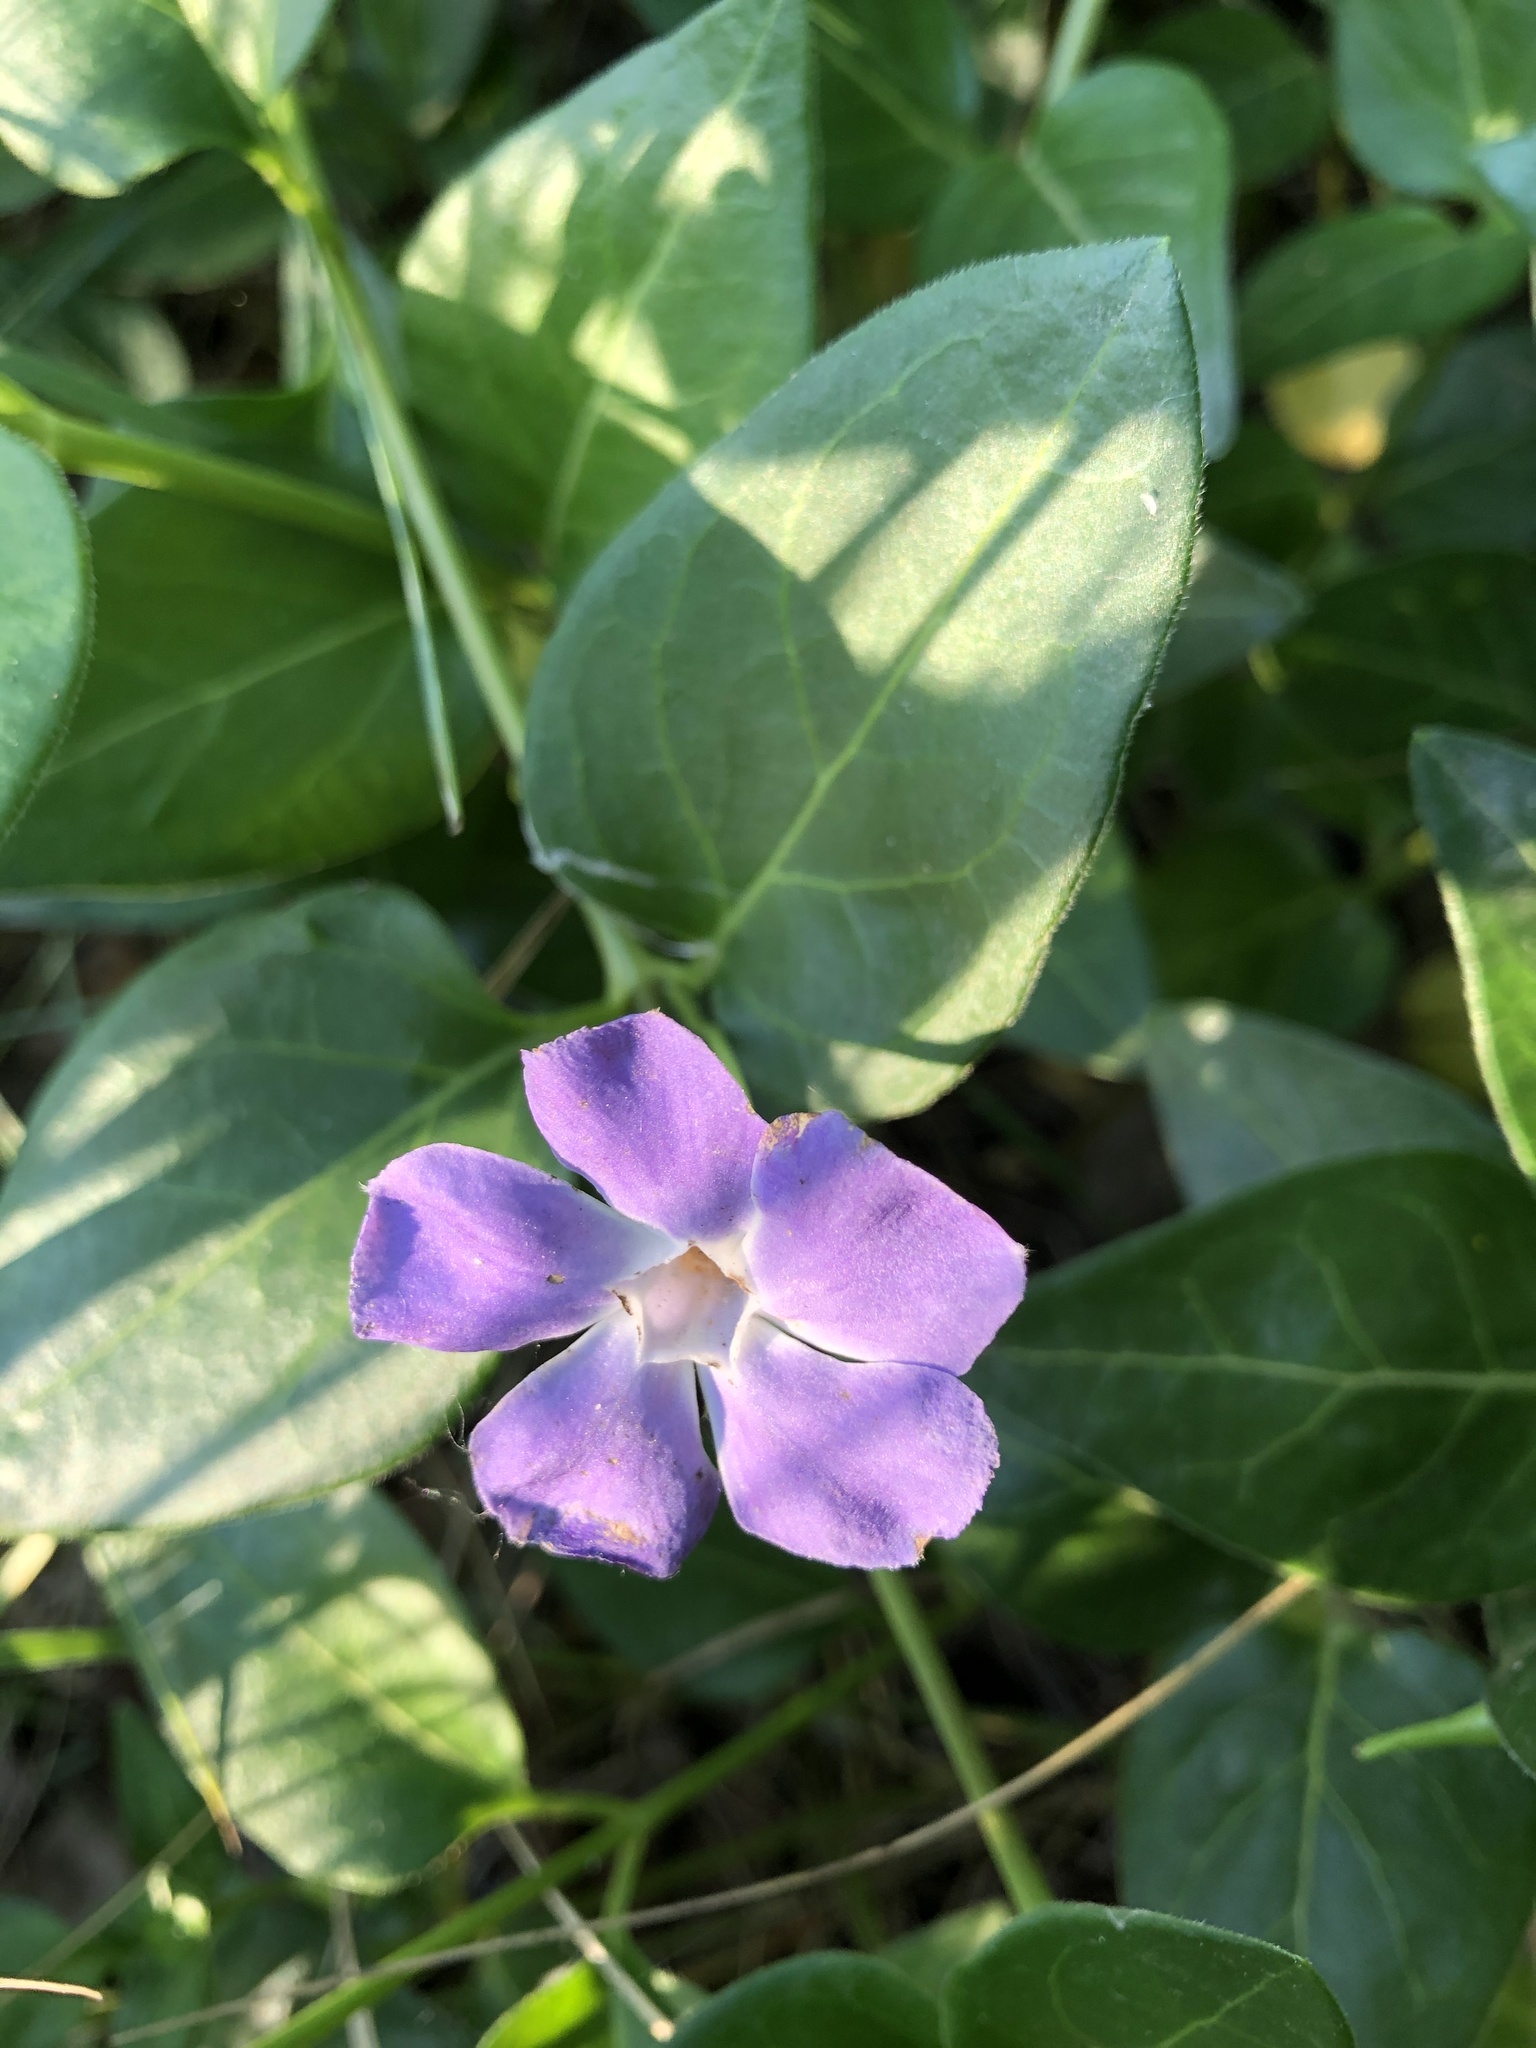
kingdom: Plantae
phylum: Tracheophyta
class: Magnoliopsida
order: Gentianales
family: Apocynaceae
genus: Vinca
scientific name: Vinca major
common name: Greater periwinkle
